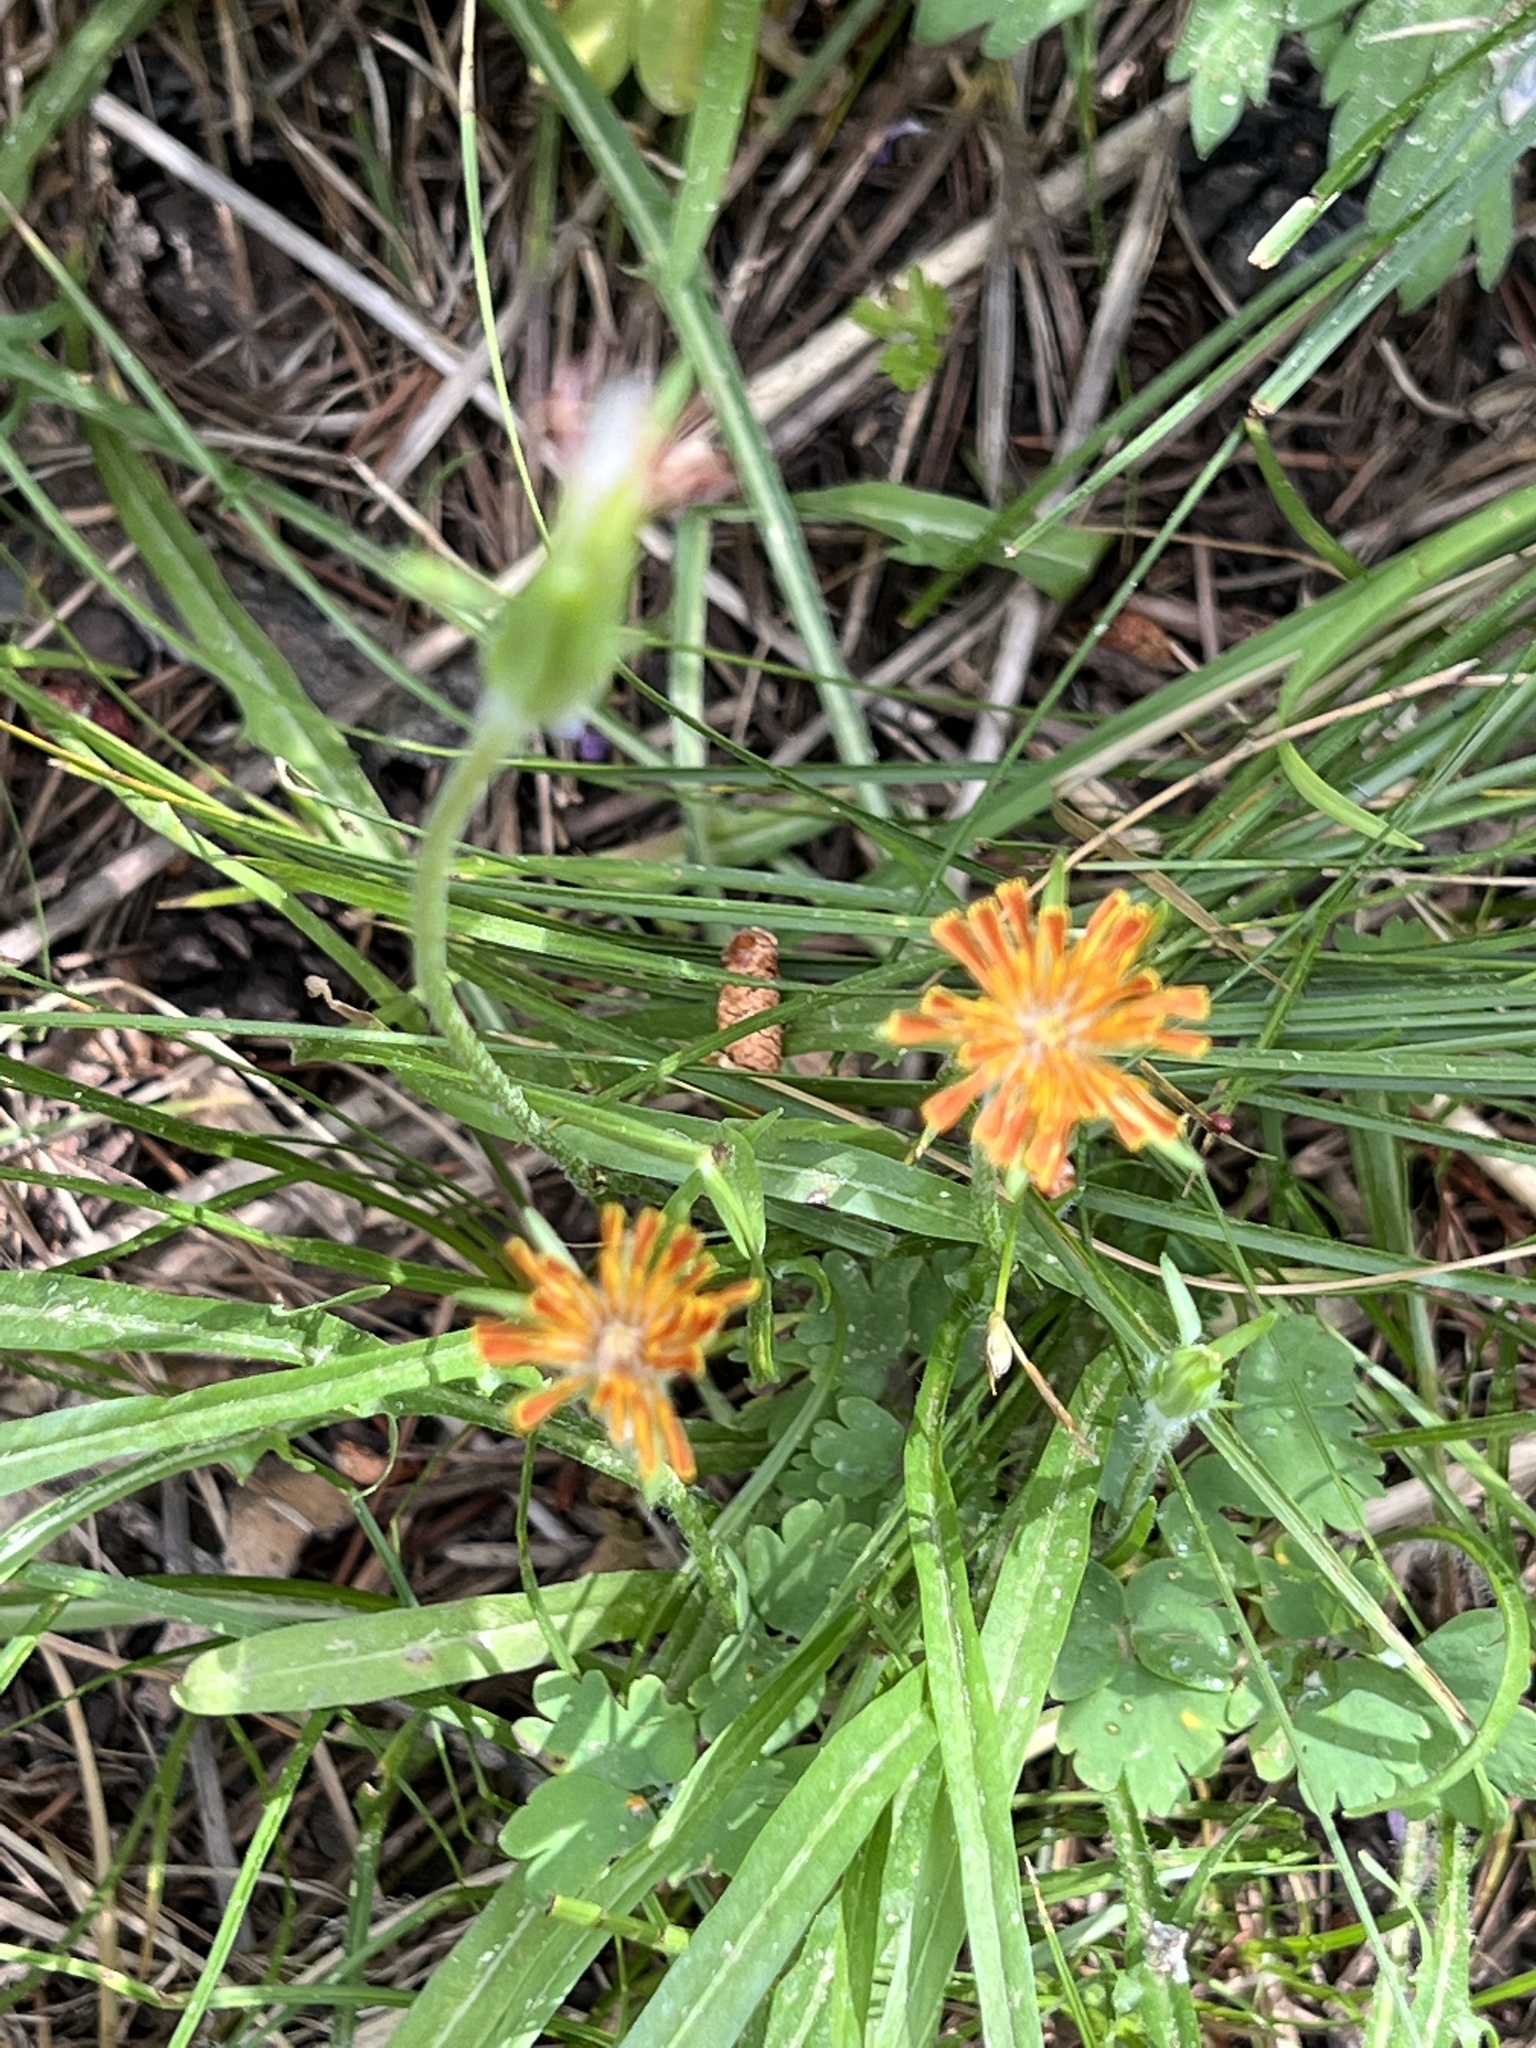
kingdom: Plantae
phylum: Tracheophyta
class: Magnoliopsida
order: Asterales
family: Asteraceae
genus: Agoseris
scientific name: Agoseris aurantiaca
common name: Mountain agoseris
